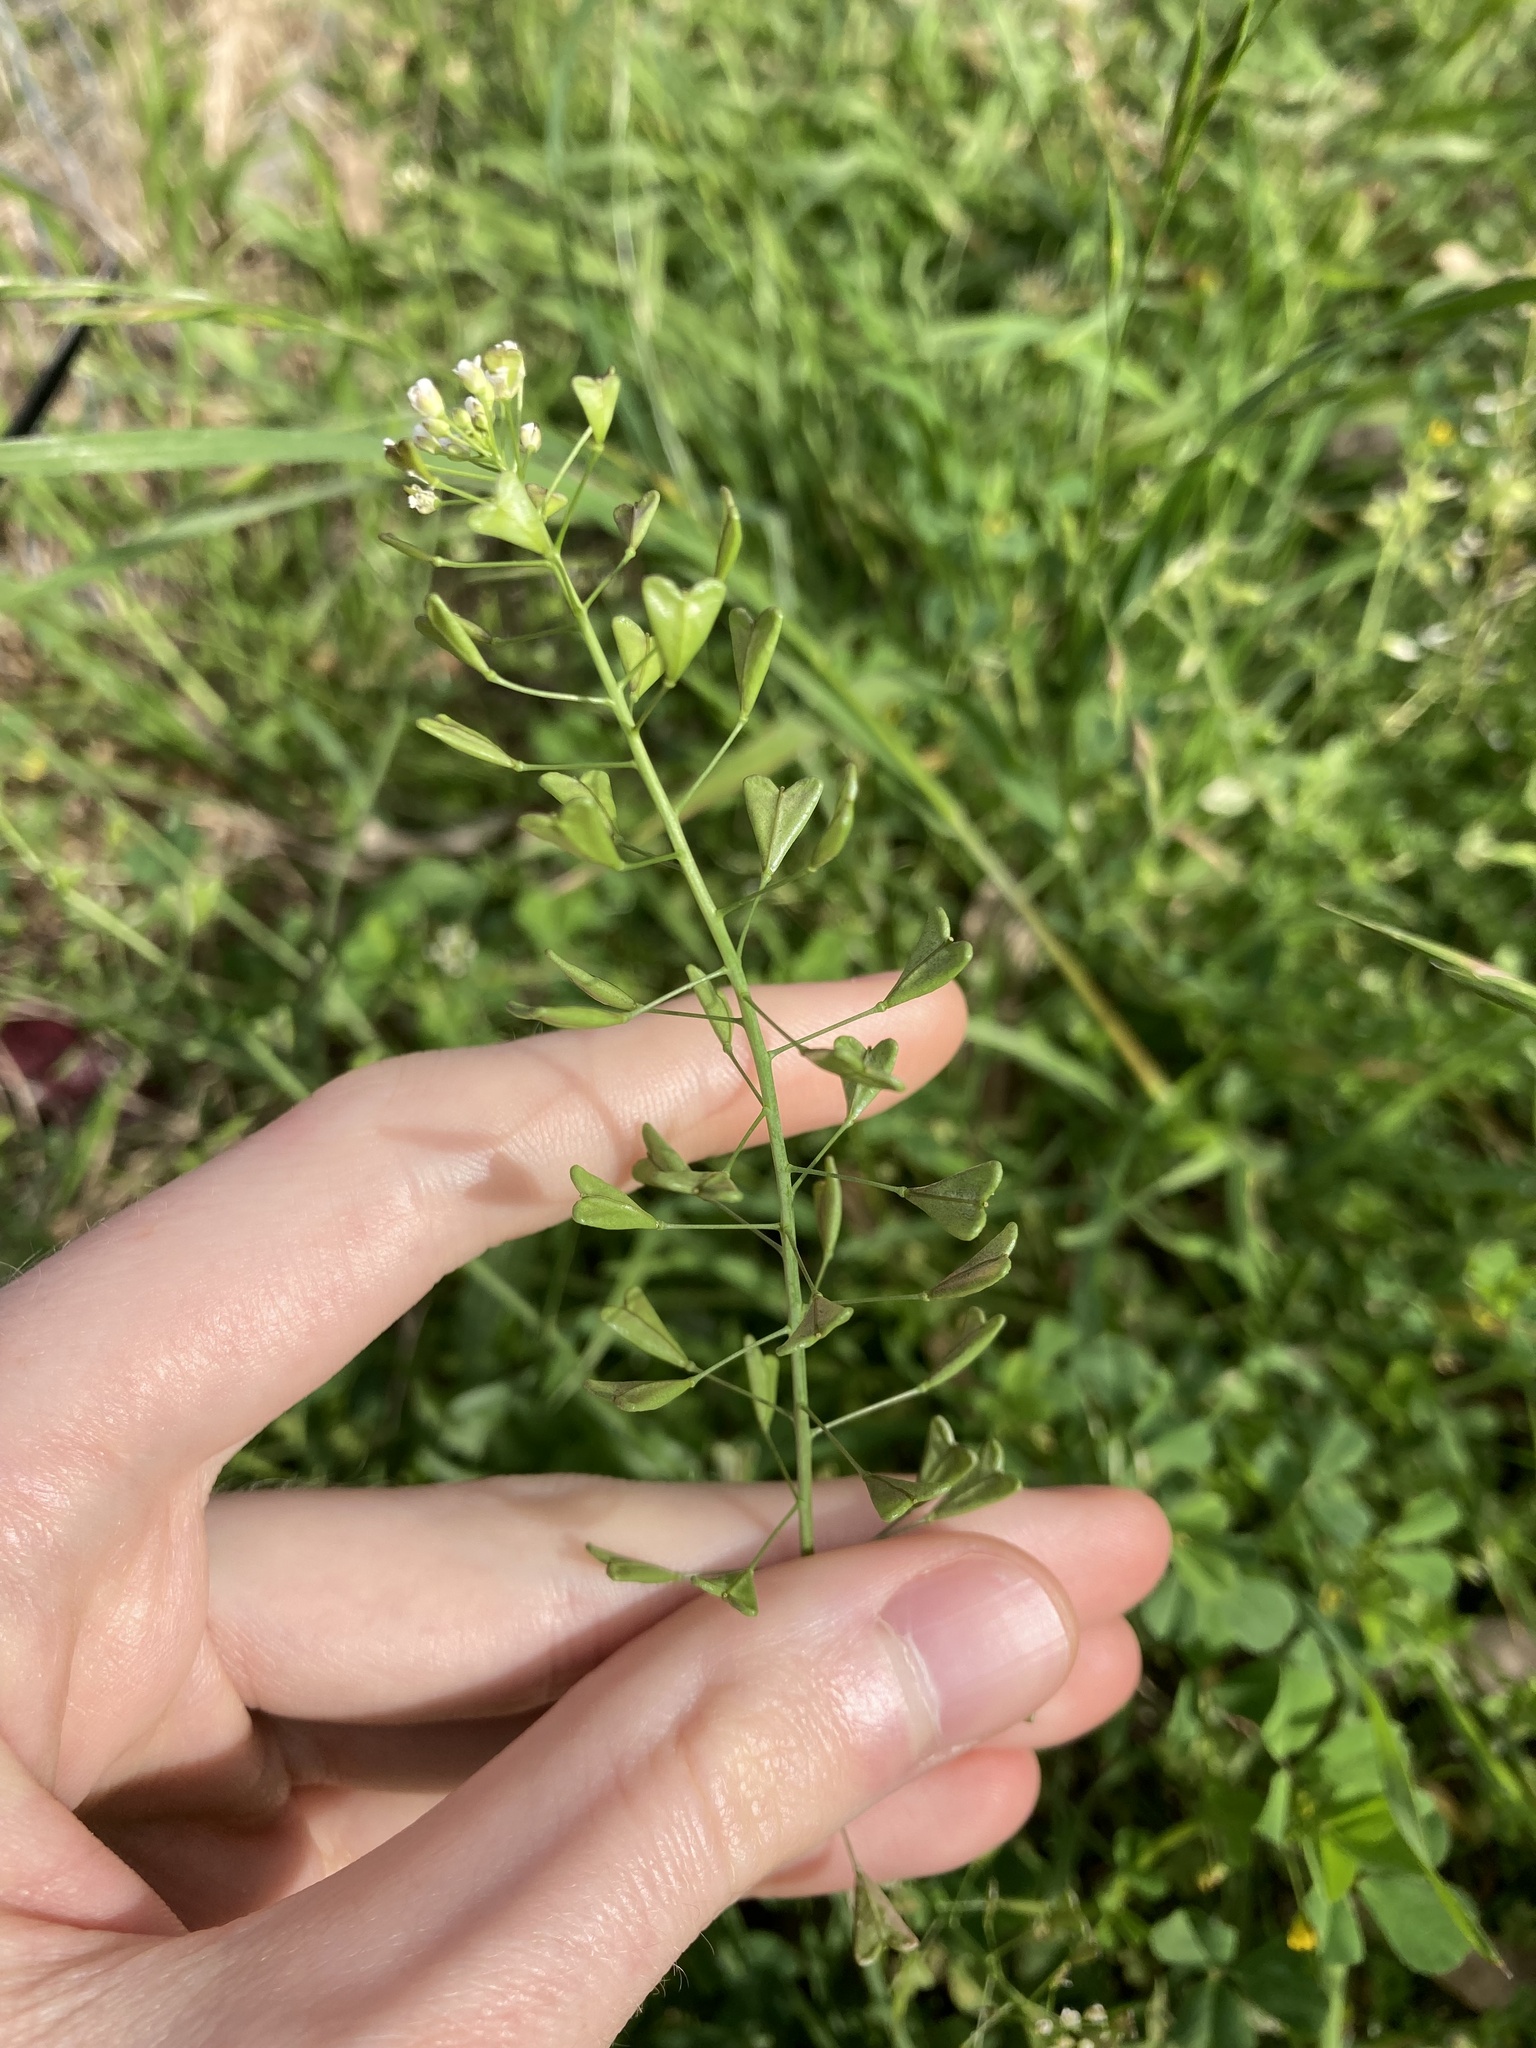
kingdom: Plantae
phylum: Tracheophyta
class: Magnoliopsida
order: Brassicales
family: Brassicaceae
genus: Capsella
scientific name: Capsella bursa-pastoris
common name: Shepherd's purse
